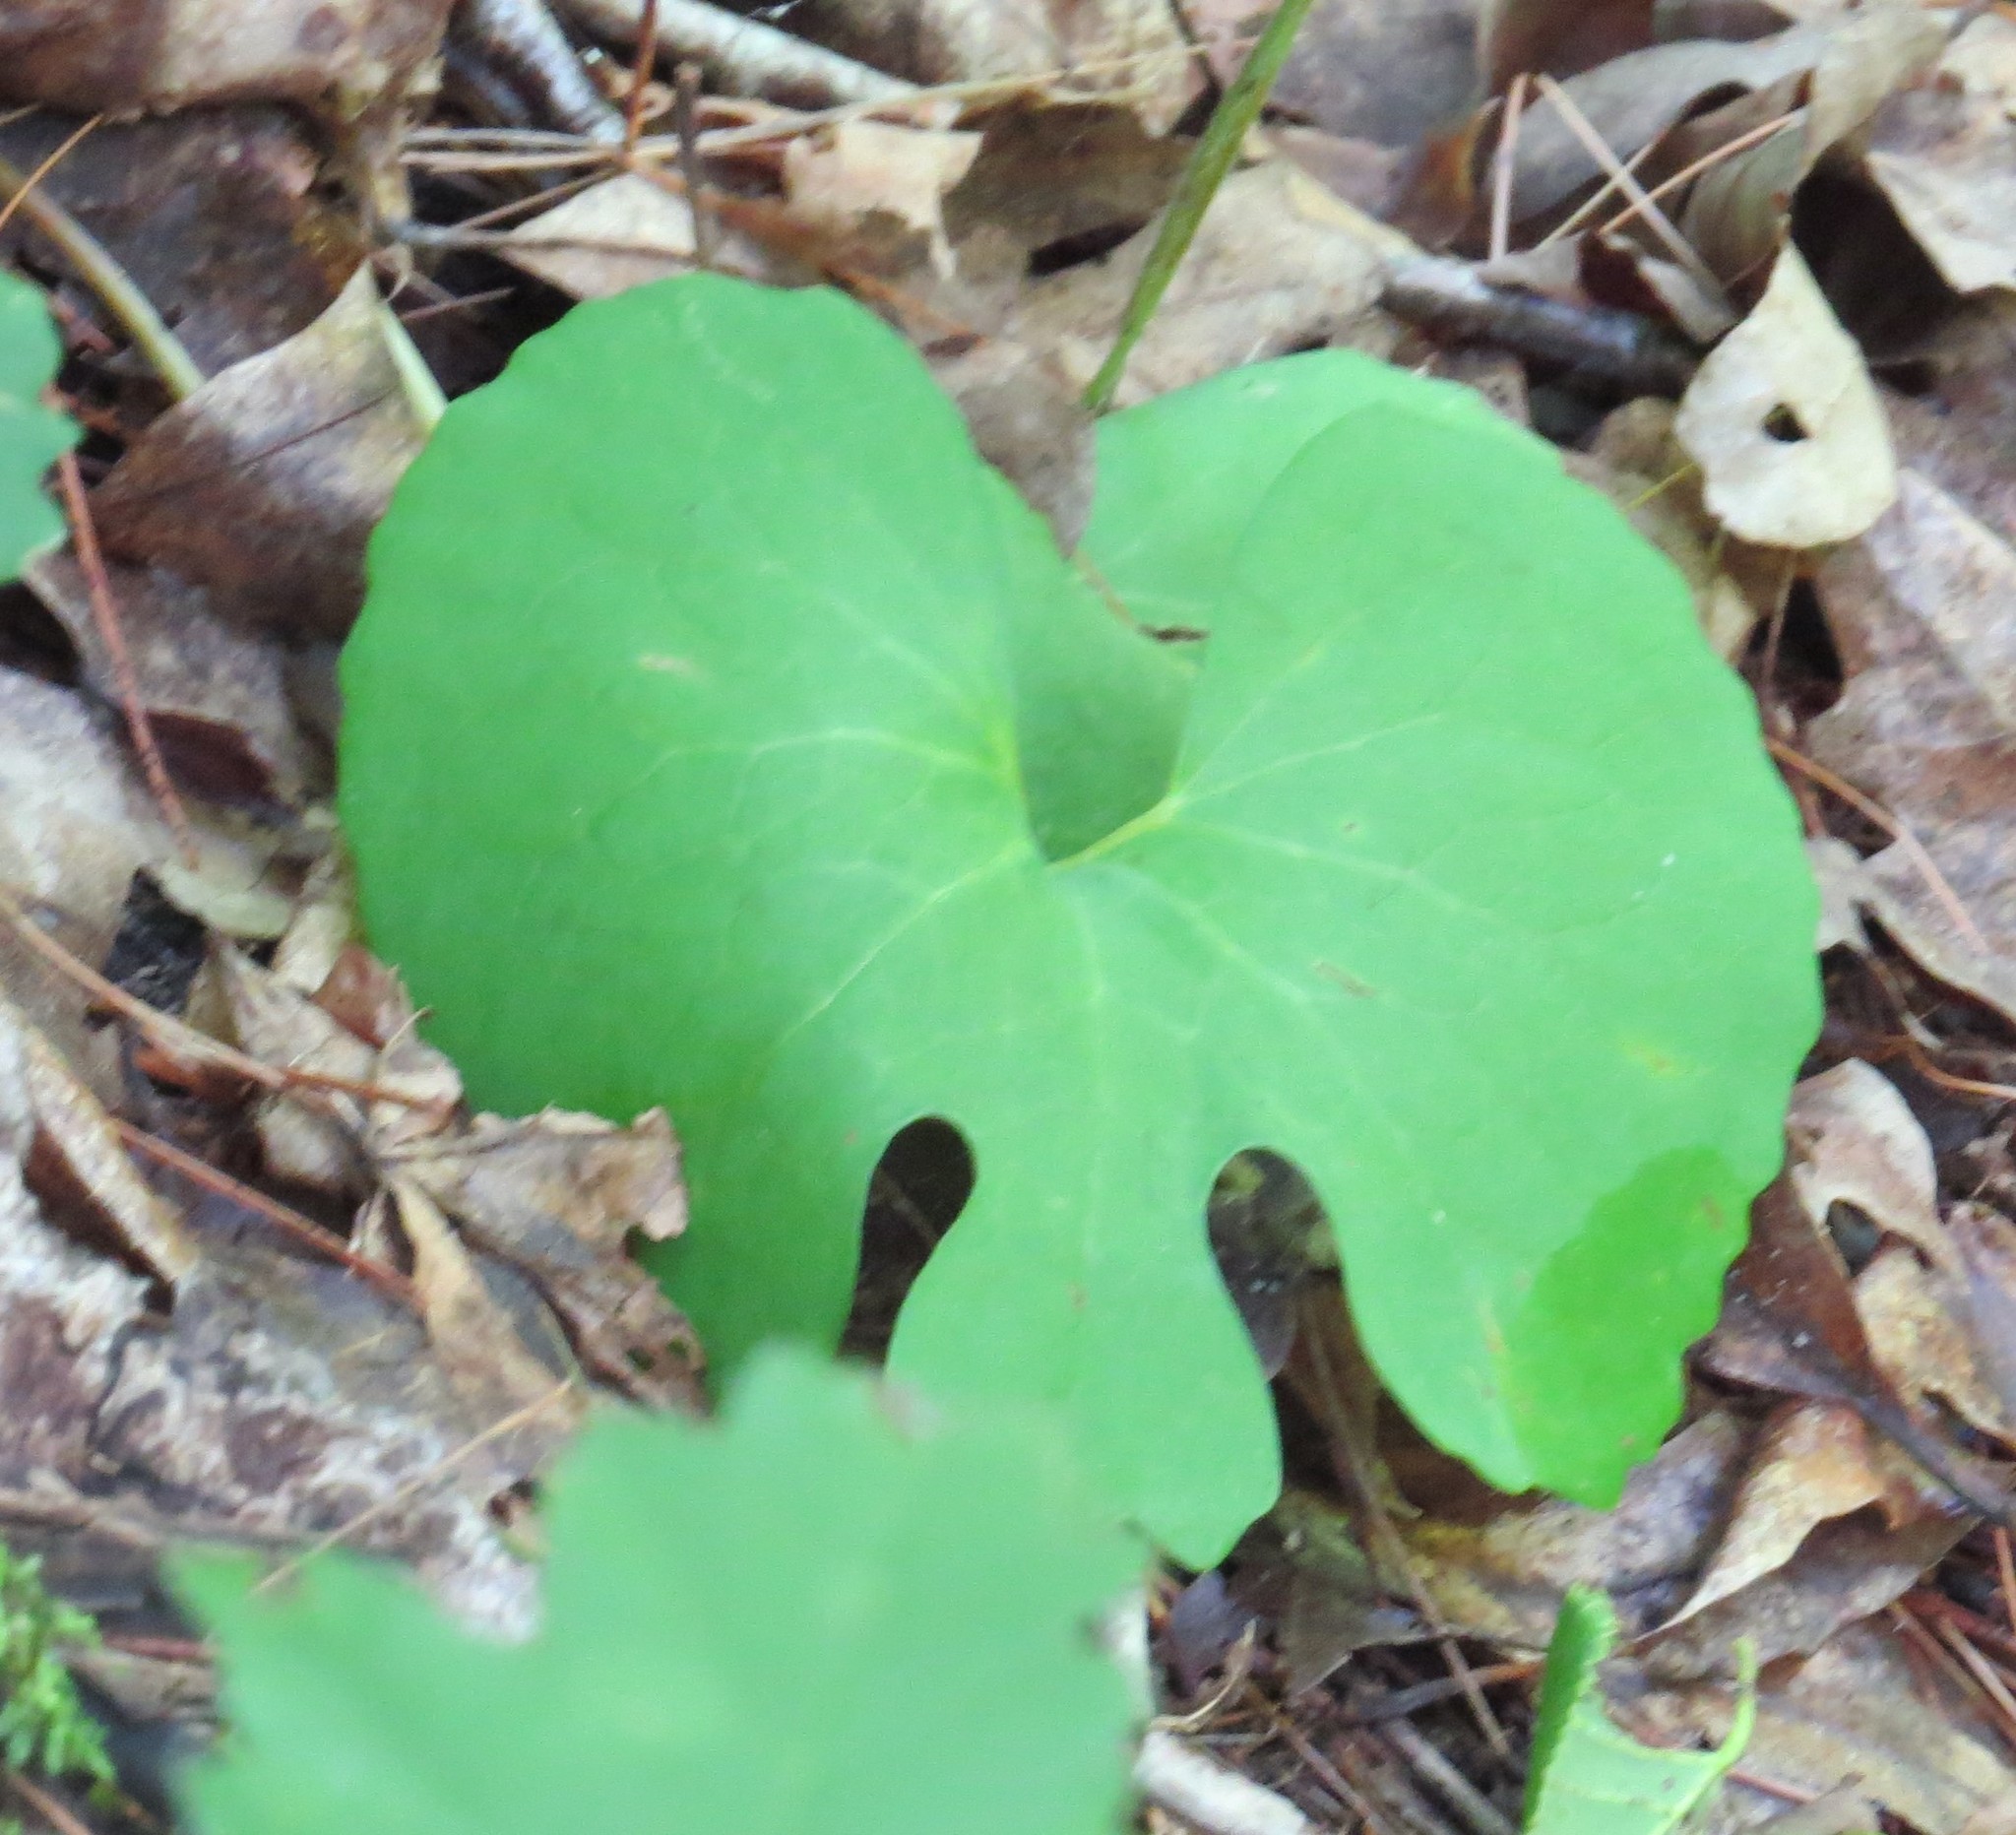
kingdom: Plantae
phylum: Tracheophyta
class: Magnoliopsida
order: Ranunculales
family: Papaveraceae
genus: Sanguinaria
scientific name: Sanguinaria canadensis
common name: Bloodroot
